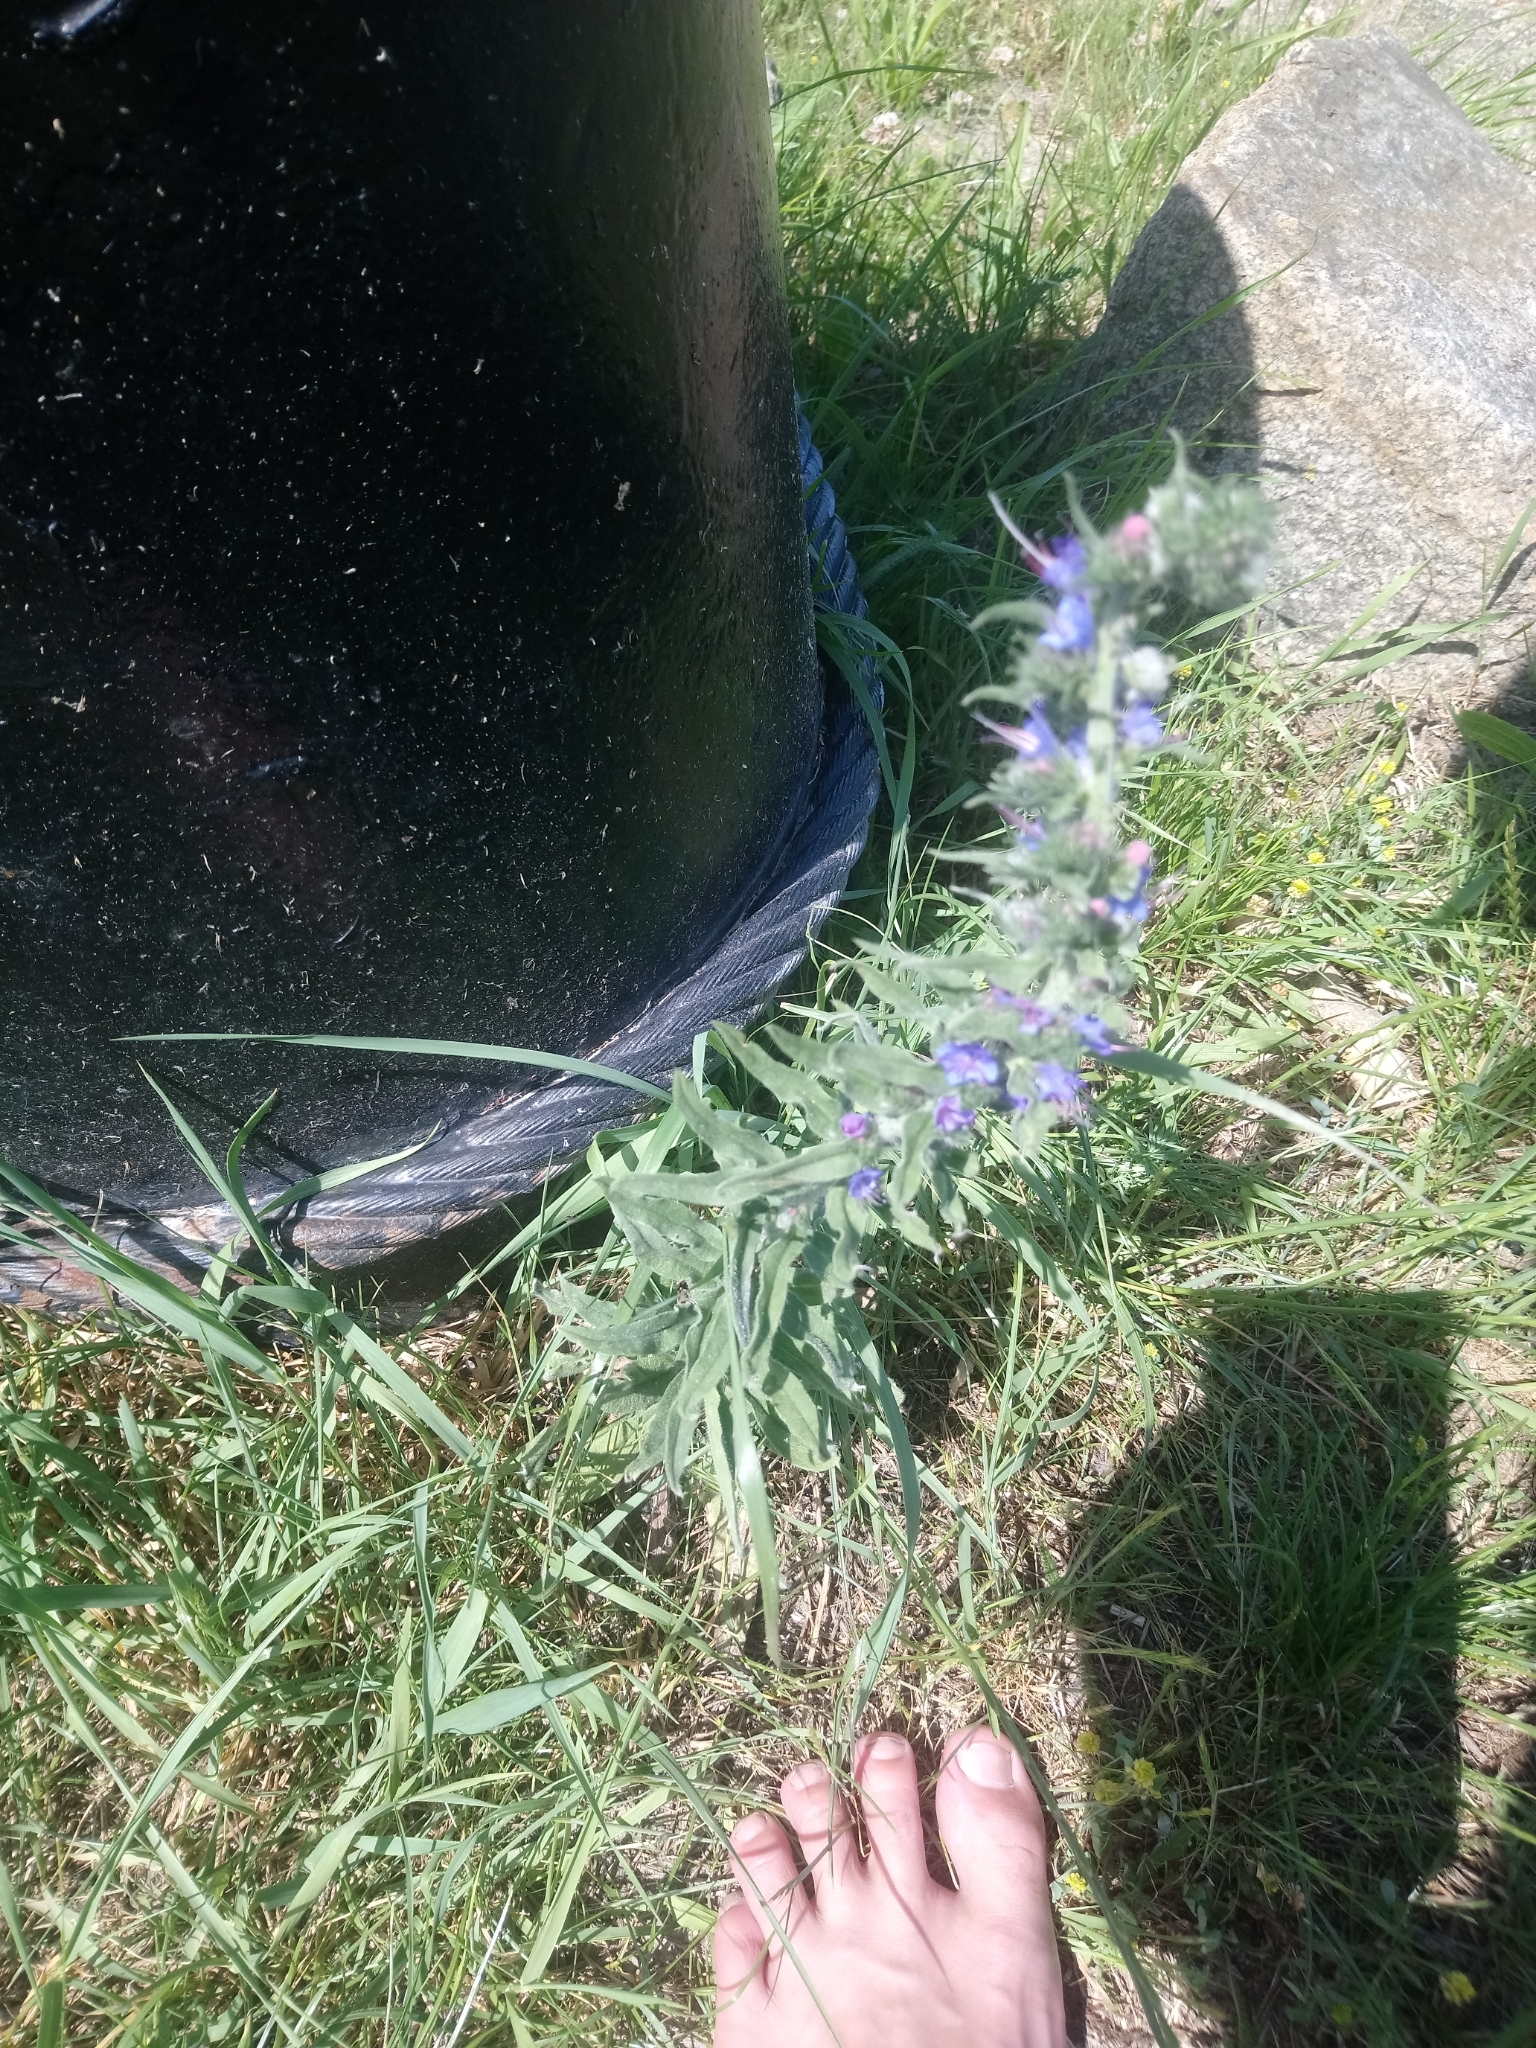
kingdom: Plantae
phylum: Tracheophyta
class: Magnoliopsida
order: Boraginales
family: Boraginaceae
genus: Echium
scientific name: Echium vulgare
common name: Common viper's bugloss
